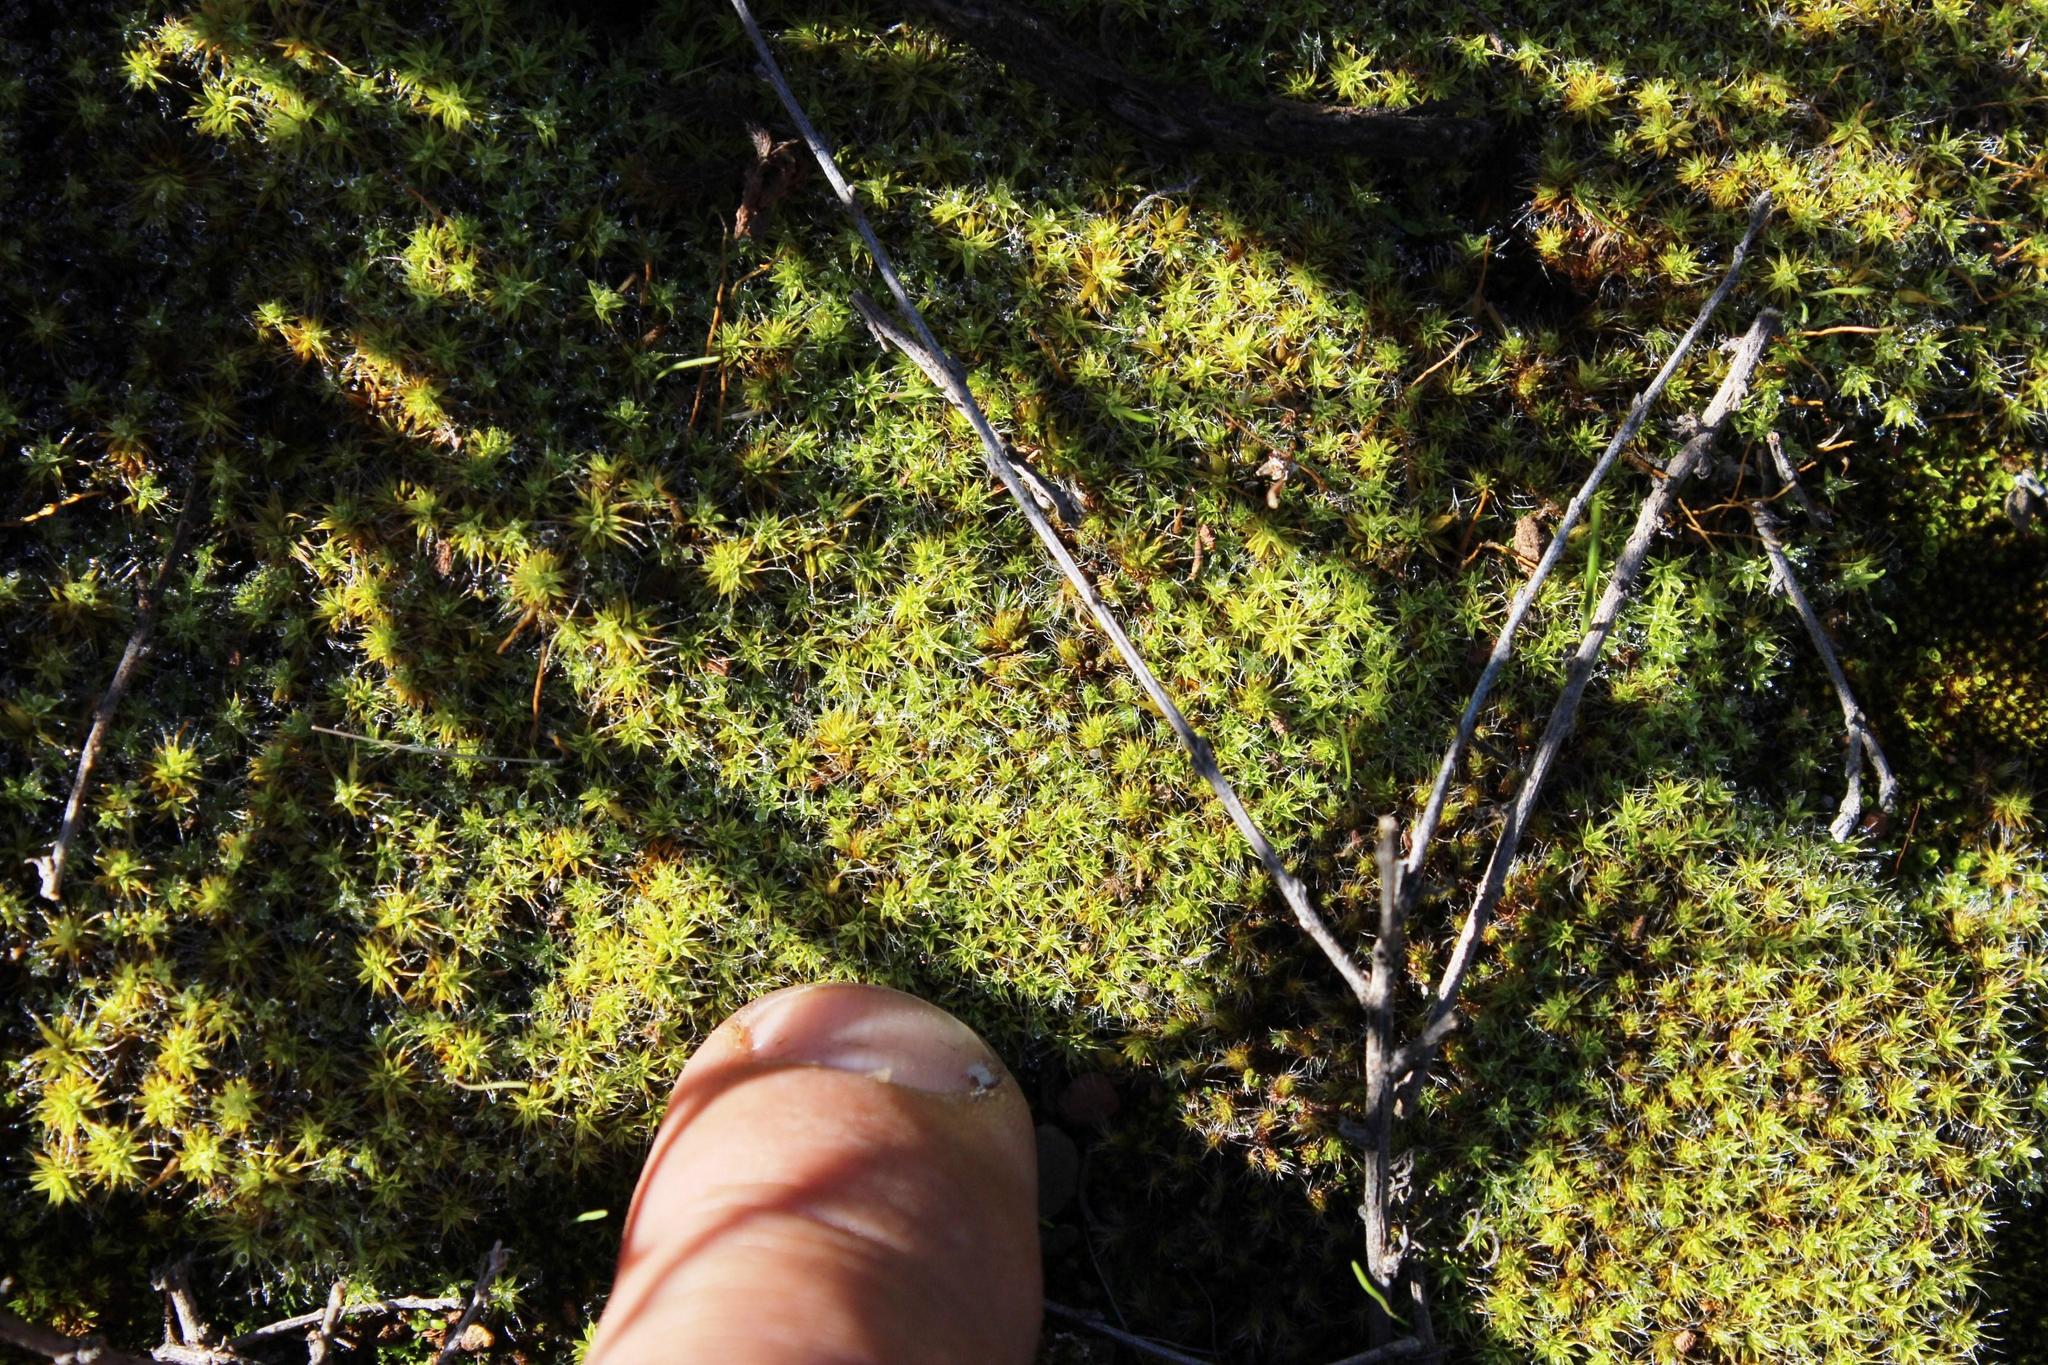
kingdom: Plantae
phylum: Bryophyta
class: Bryopsida
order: Pottiales
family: Pottiaceae
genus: Pseudocrossidium
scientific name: Pseudocrossidium crinitum
